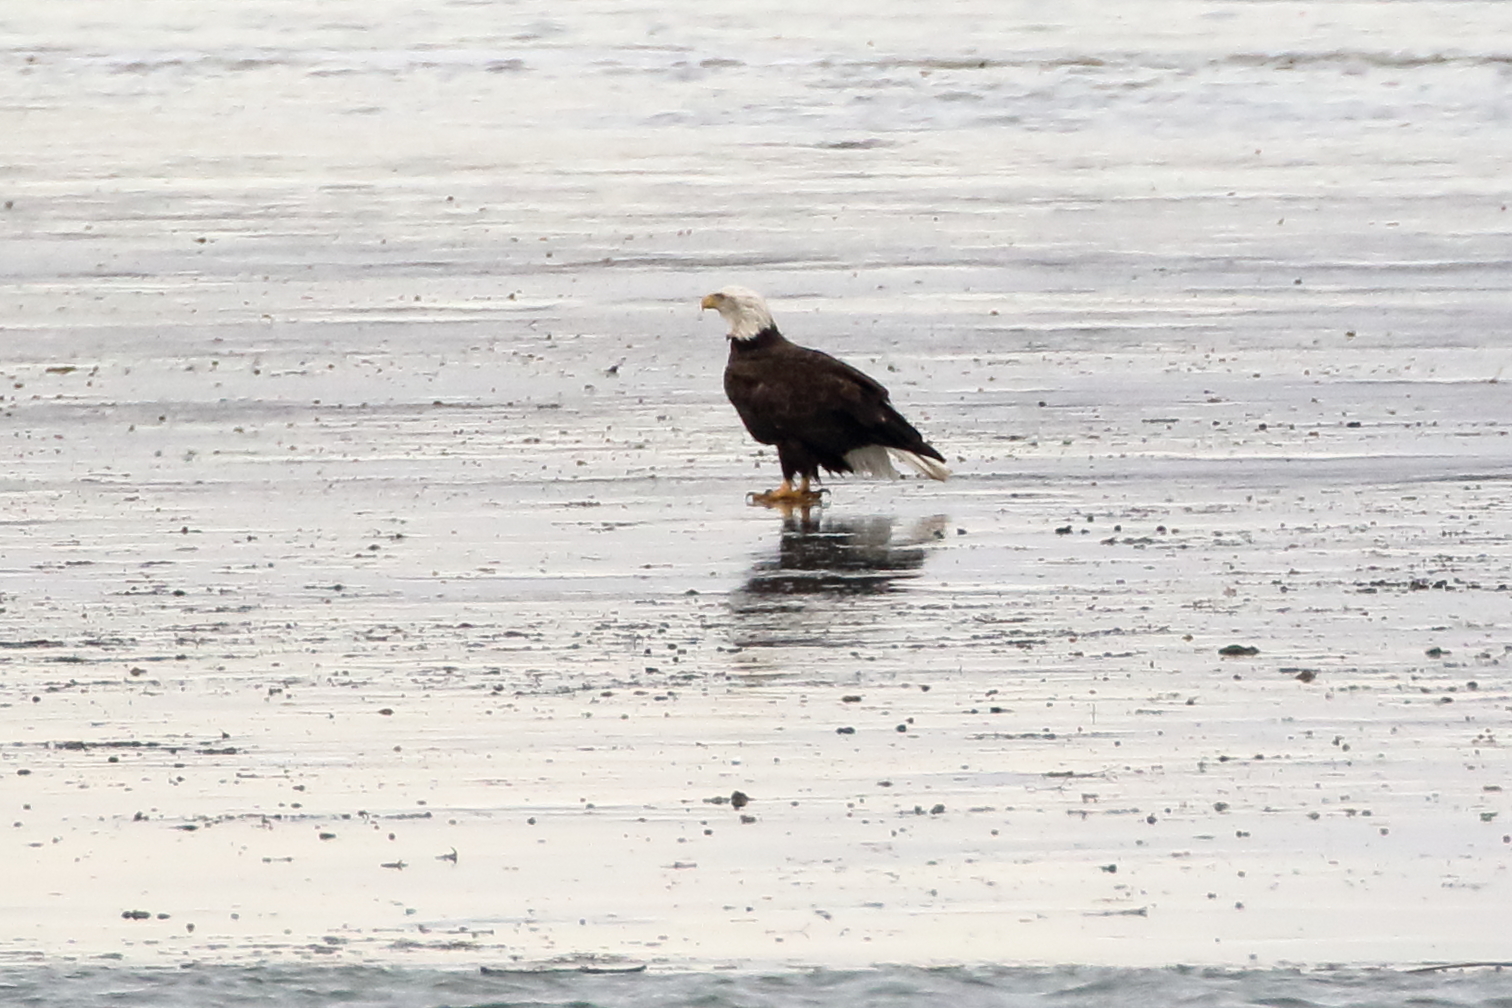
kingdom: Animalia
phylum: Chordata
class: Aves
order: Accipitriformes
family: Accipitridae
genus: Haliaeetus
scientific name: Haliaeetus leucocephalus
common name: Bald eagle
